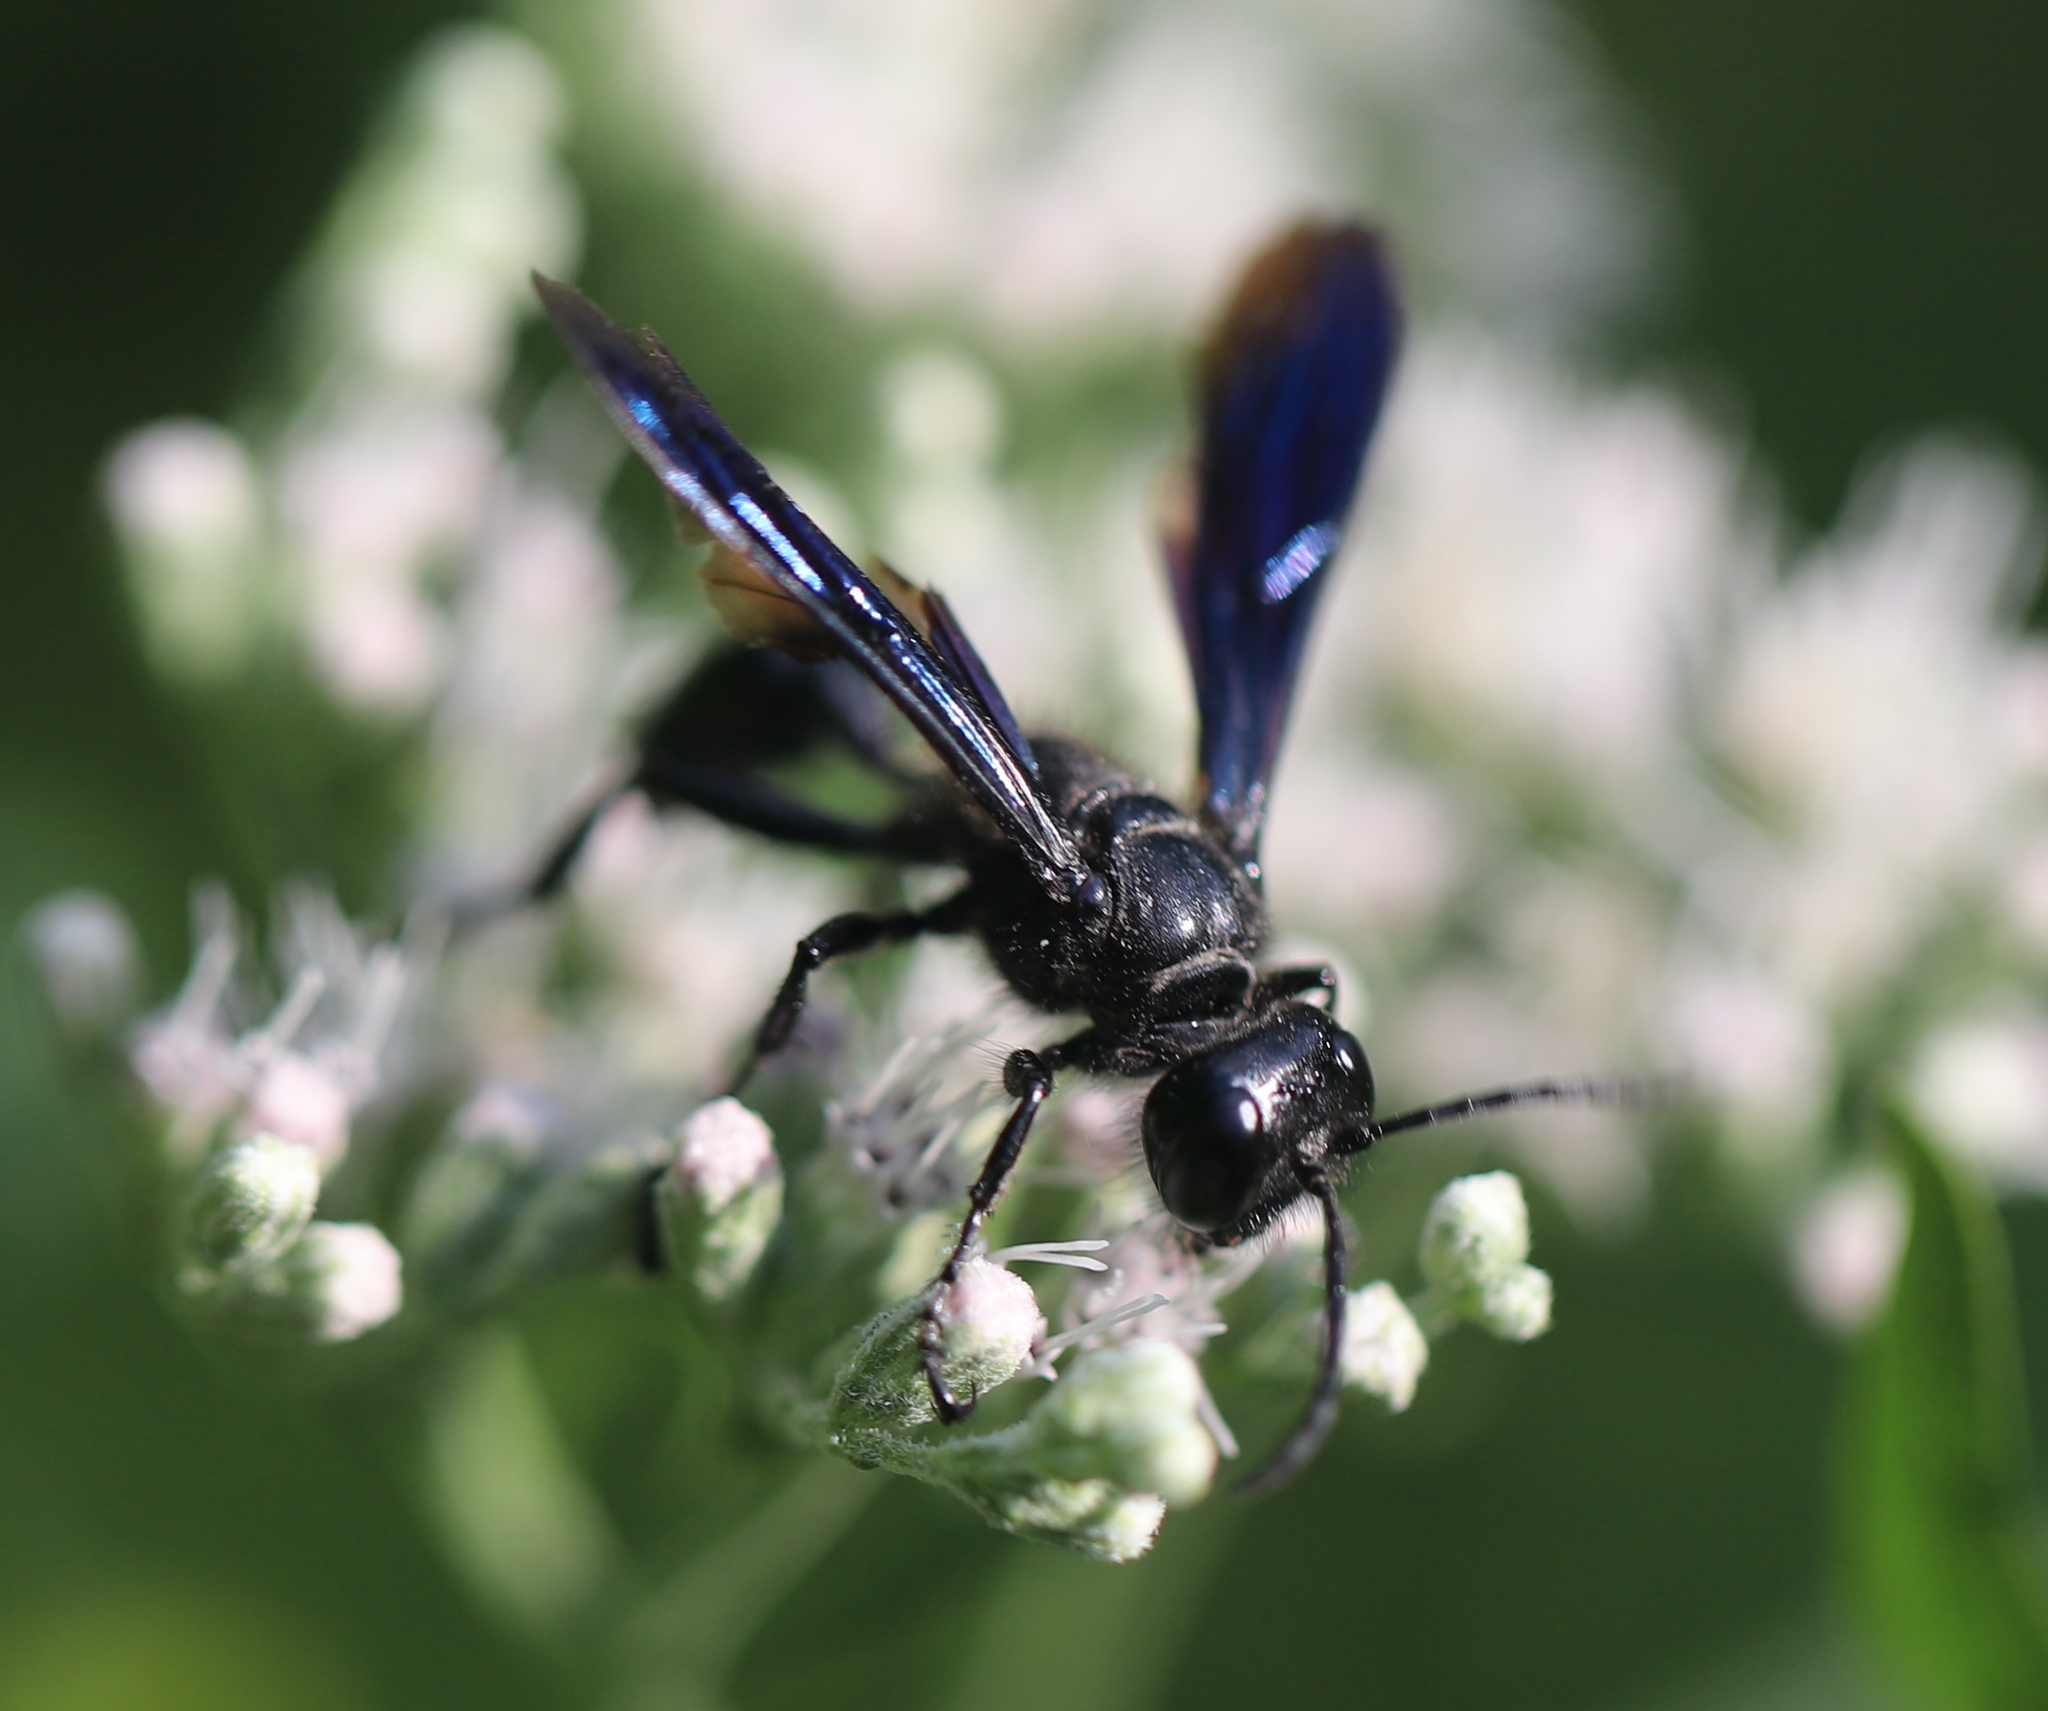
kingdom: Animalia
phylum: Arthropoda
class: Insecta
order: Hymenoptera
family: Sphecidae
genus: Isodontia
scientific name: Isodontia philadelphica
